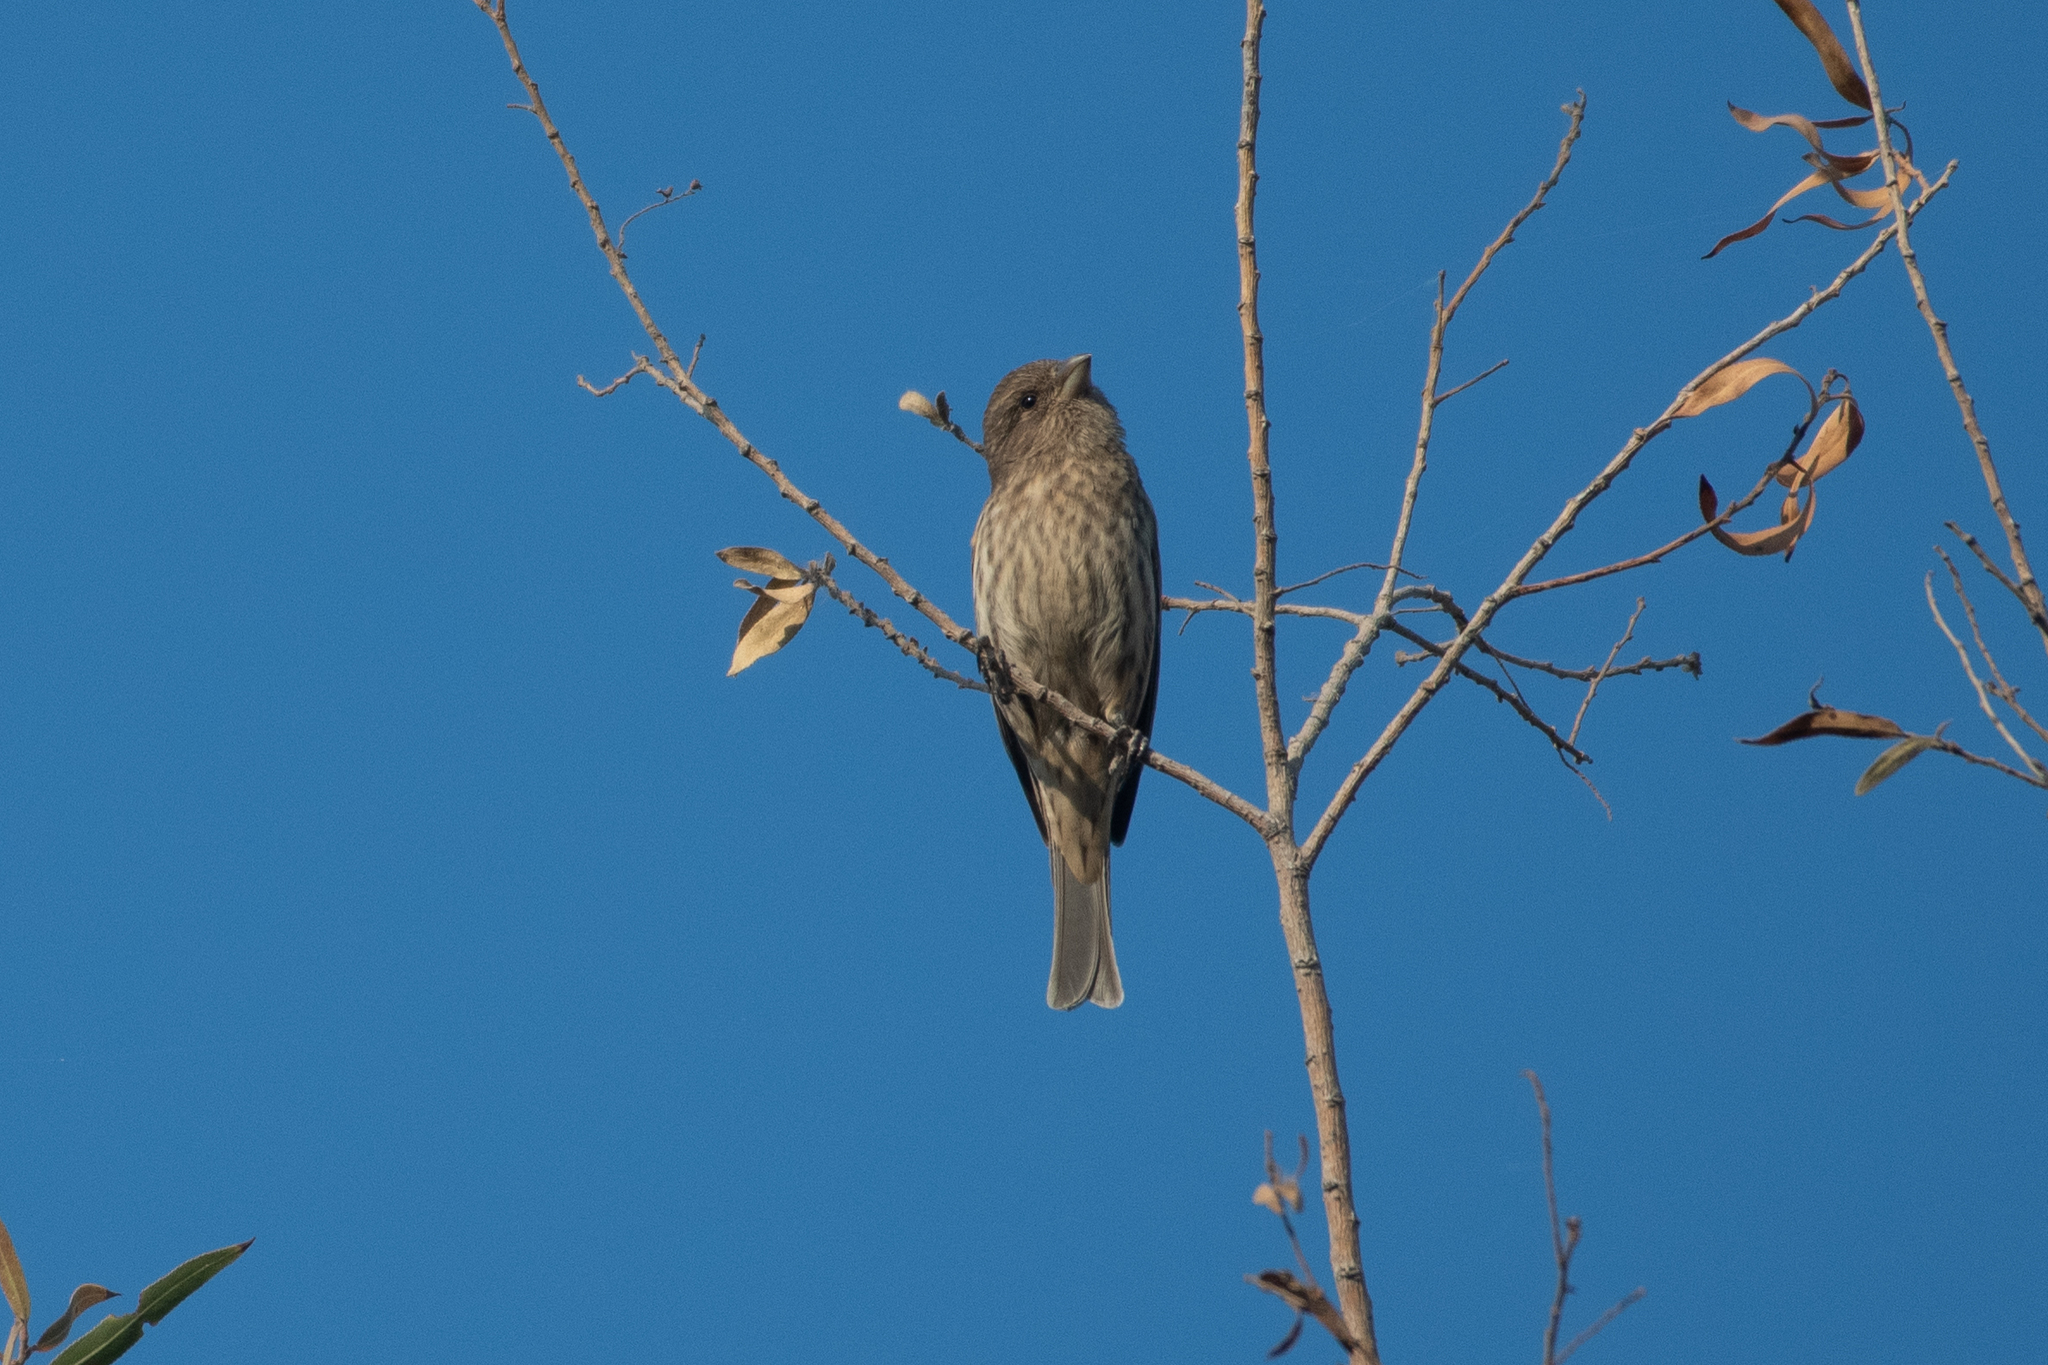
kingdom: Animalia
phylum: Chordata
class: Aves
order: Passeriformes
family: Fringillidae
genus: Haemorhous
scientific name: Haemorhous mexicanus
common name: House finch
